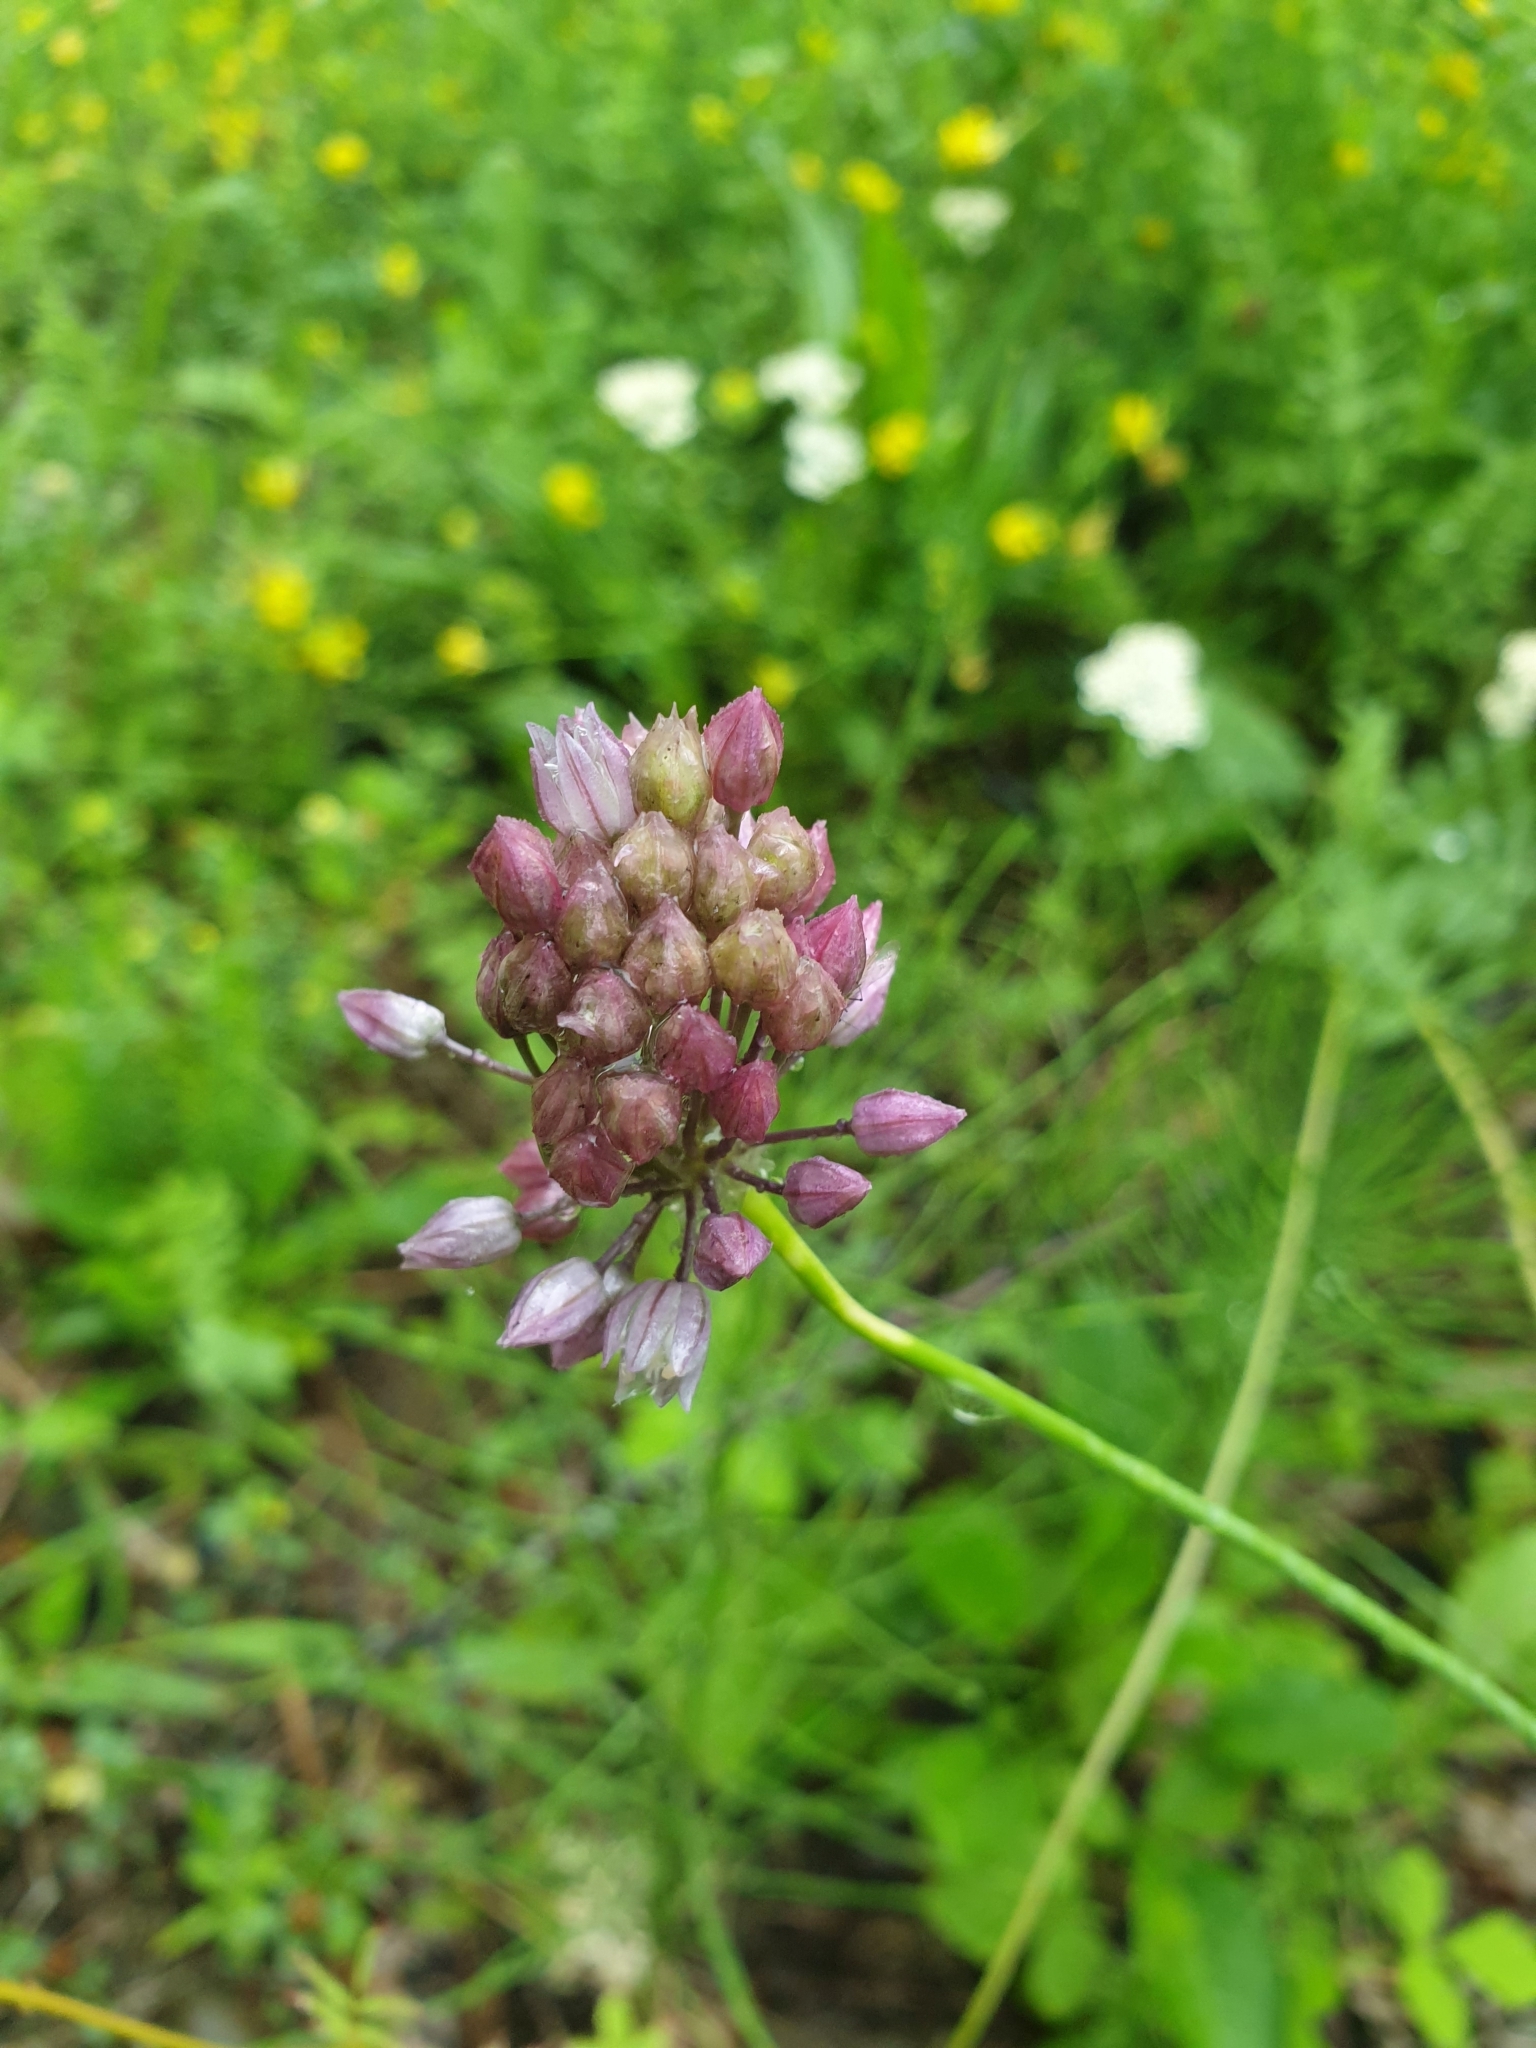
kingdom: Plantae
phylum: Tracheophyta
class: Liliopsida
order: Asparagales
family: Amaryllidaceae
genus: Allium
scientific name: Allium rotundum
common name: Sand leek
